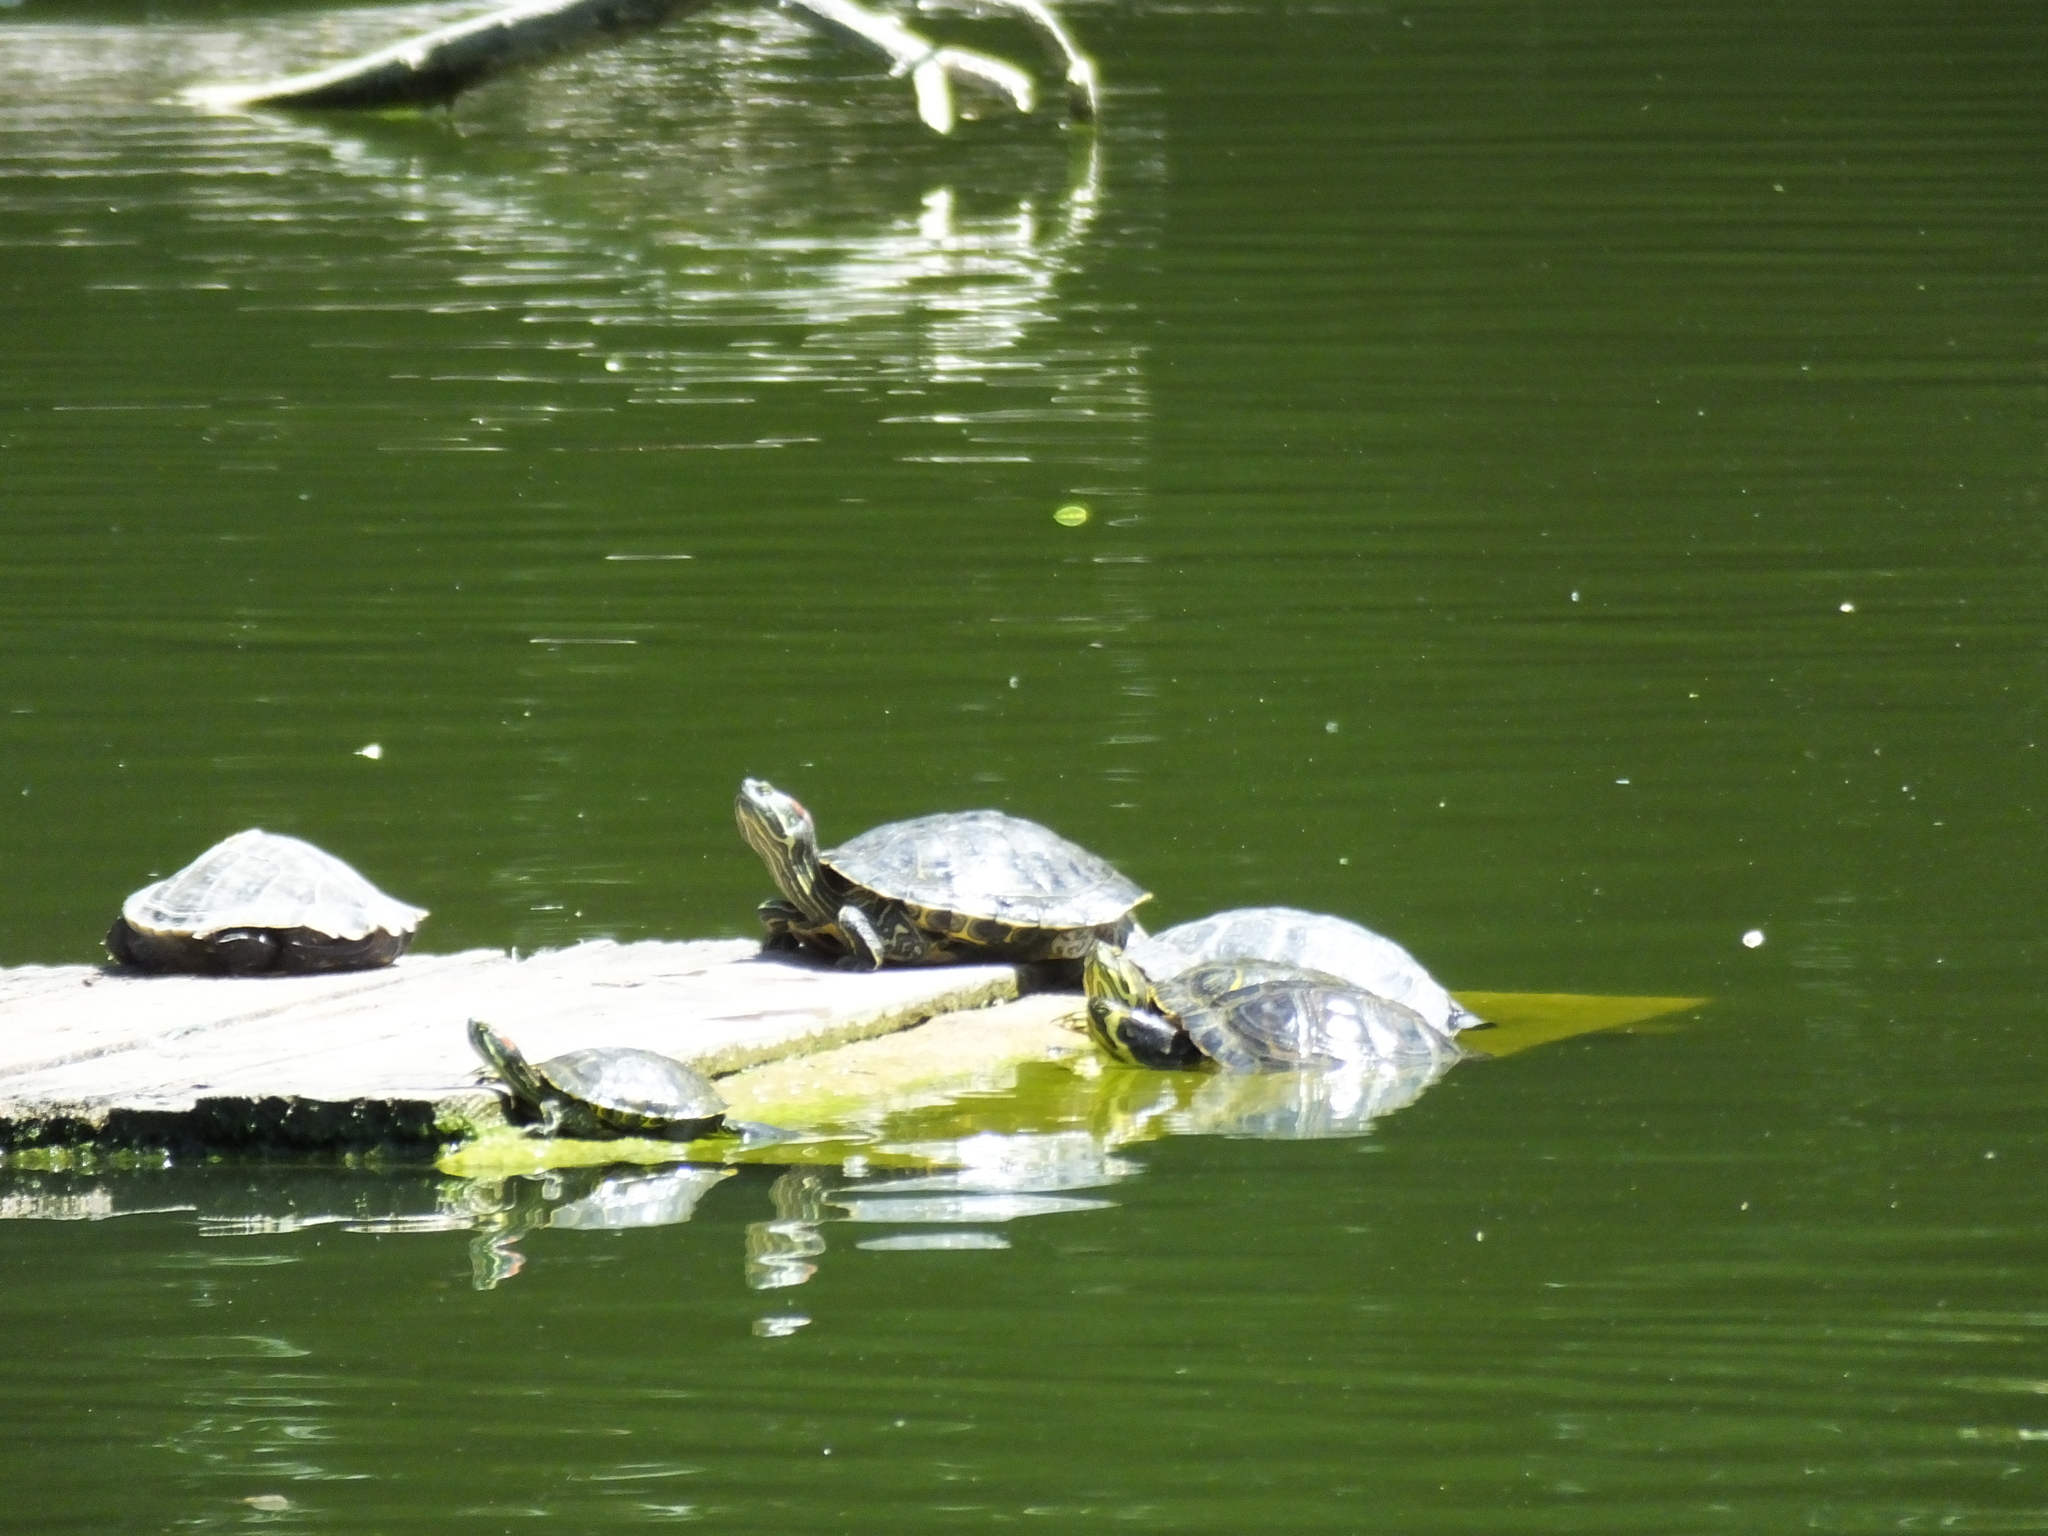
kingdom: Animalia
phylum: Chordata
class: Testudines
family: Emydidae
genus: Trachemys
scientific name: Trachemys scripta
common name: Slider
